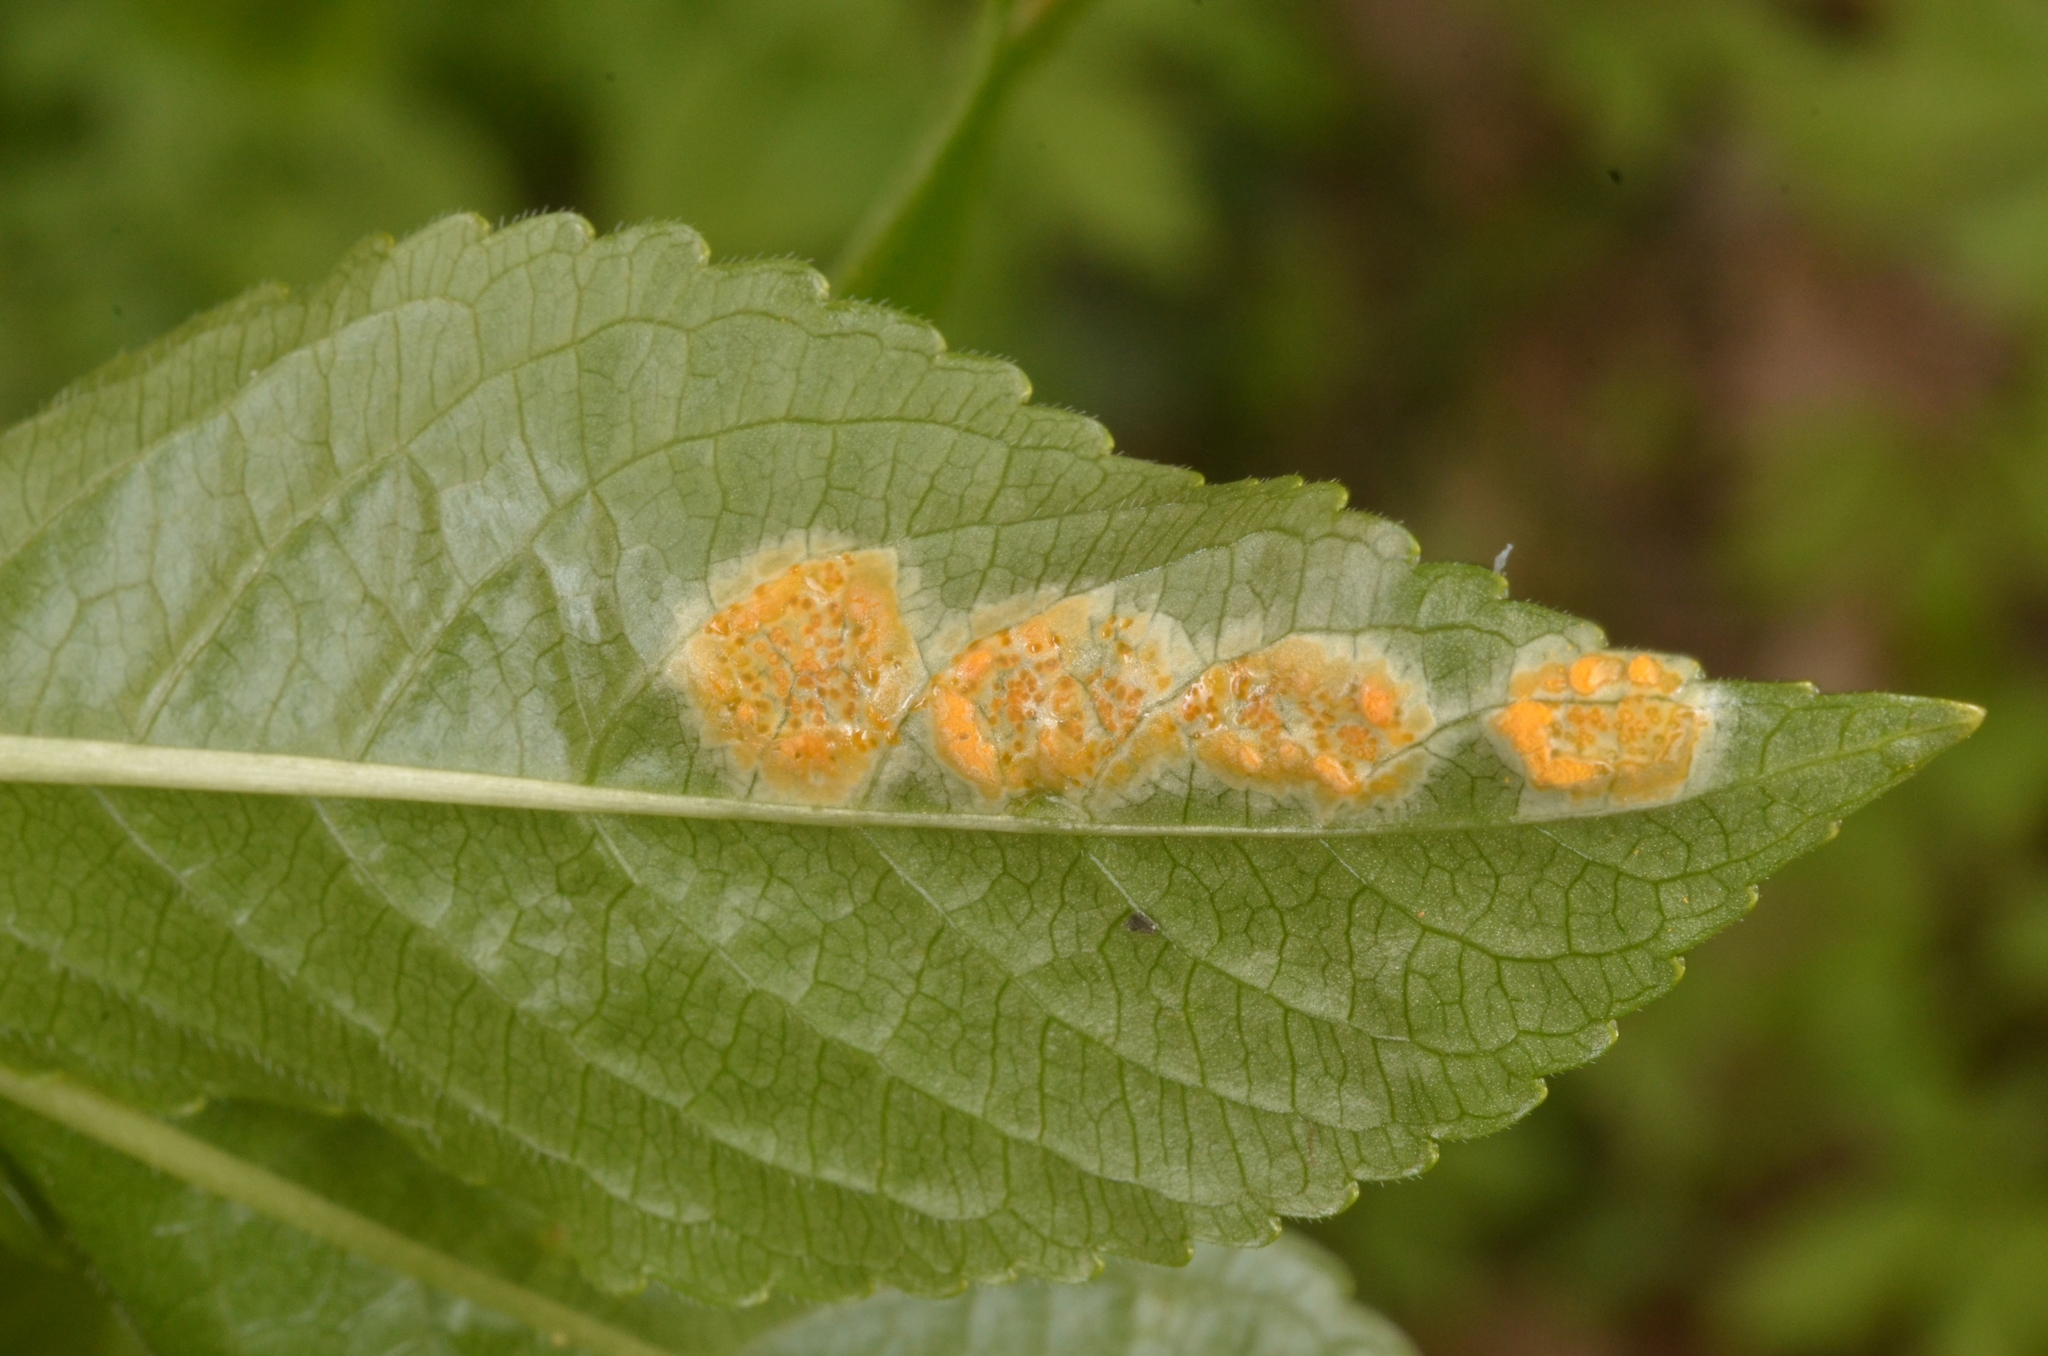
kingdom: Fungi
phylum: Basidiomycota
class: Pucciniomycetes
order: Pucciniales
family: Melampsoraceae
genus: Melampsora
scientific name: Melampsora rostrupii
